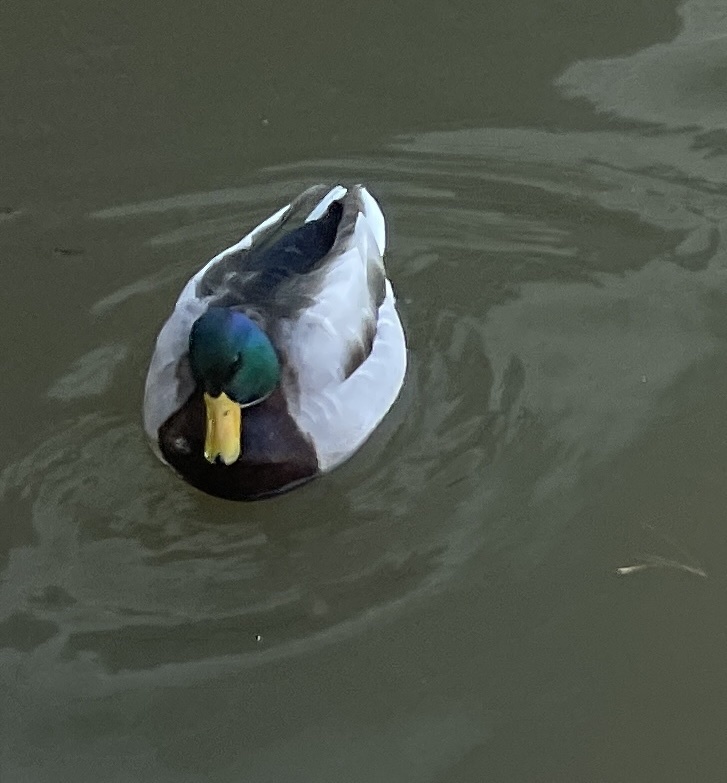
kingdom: Animalia
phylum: Chordata
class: Aves
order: Anseriformes
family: Anatidae
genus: Anas
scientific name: Anas platyrhynchos
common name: Mallard
